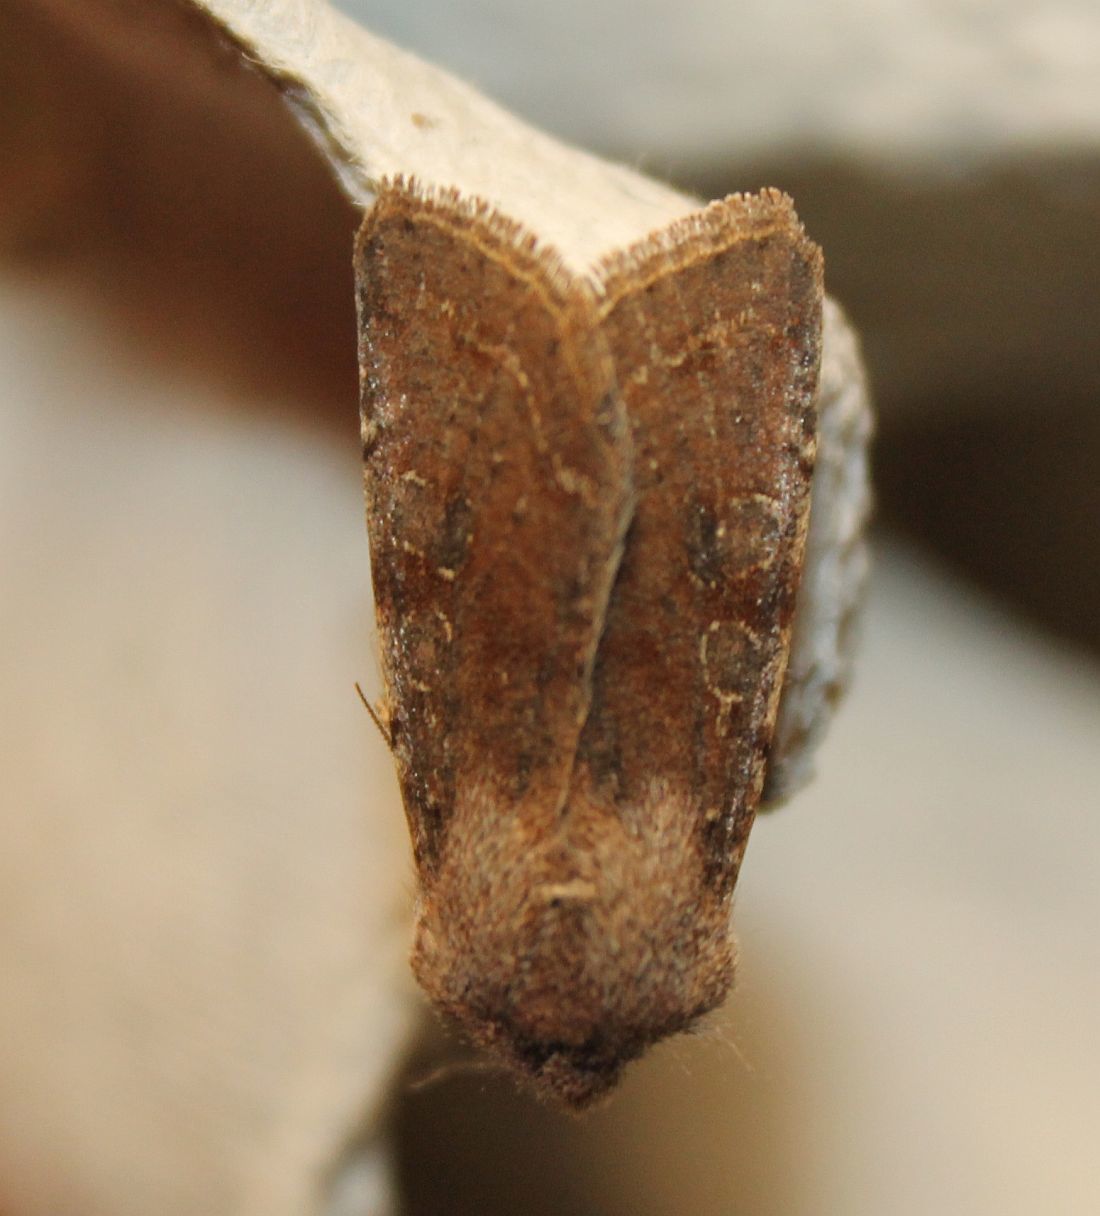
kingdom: Animalia
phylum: Arthropoda
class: Insecta
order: Lepidoptera
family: Noctuidae
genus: Orthosia
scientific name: Orthosia incerta
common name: Clouded drab
